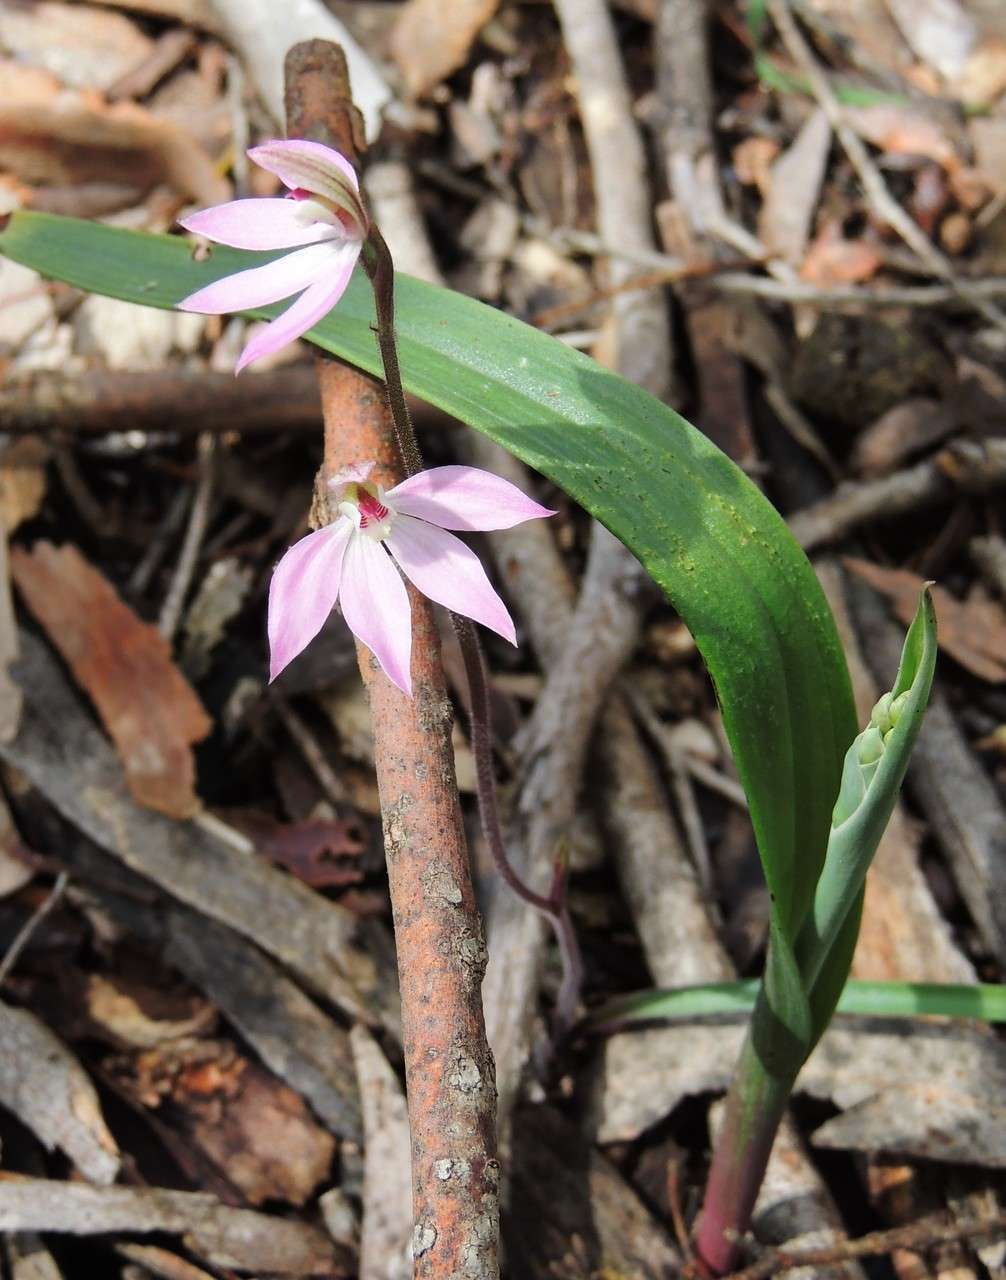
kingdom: Plantae
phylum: Tracheophyta
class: Liliopsida
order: Asparagales
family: Orchidaceae
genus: Caladenia
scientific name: Caladenia carnea
